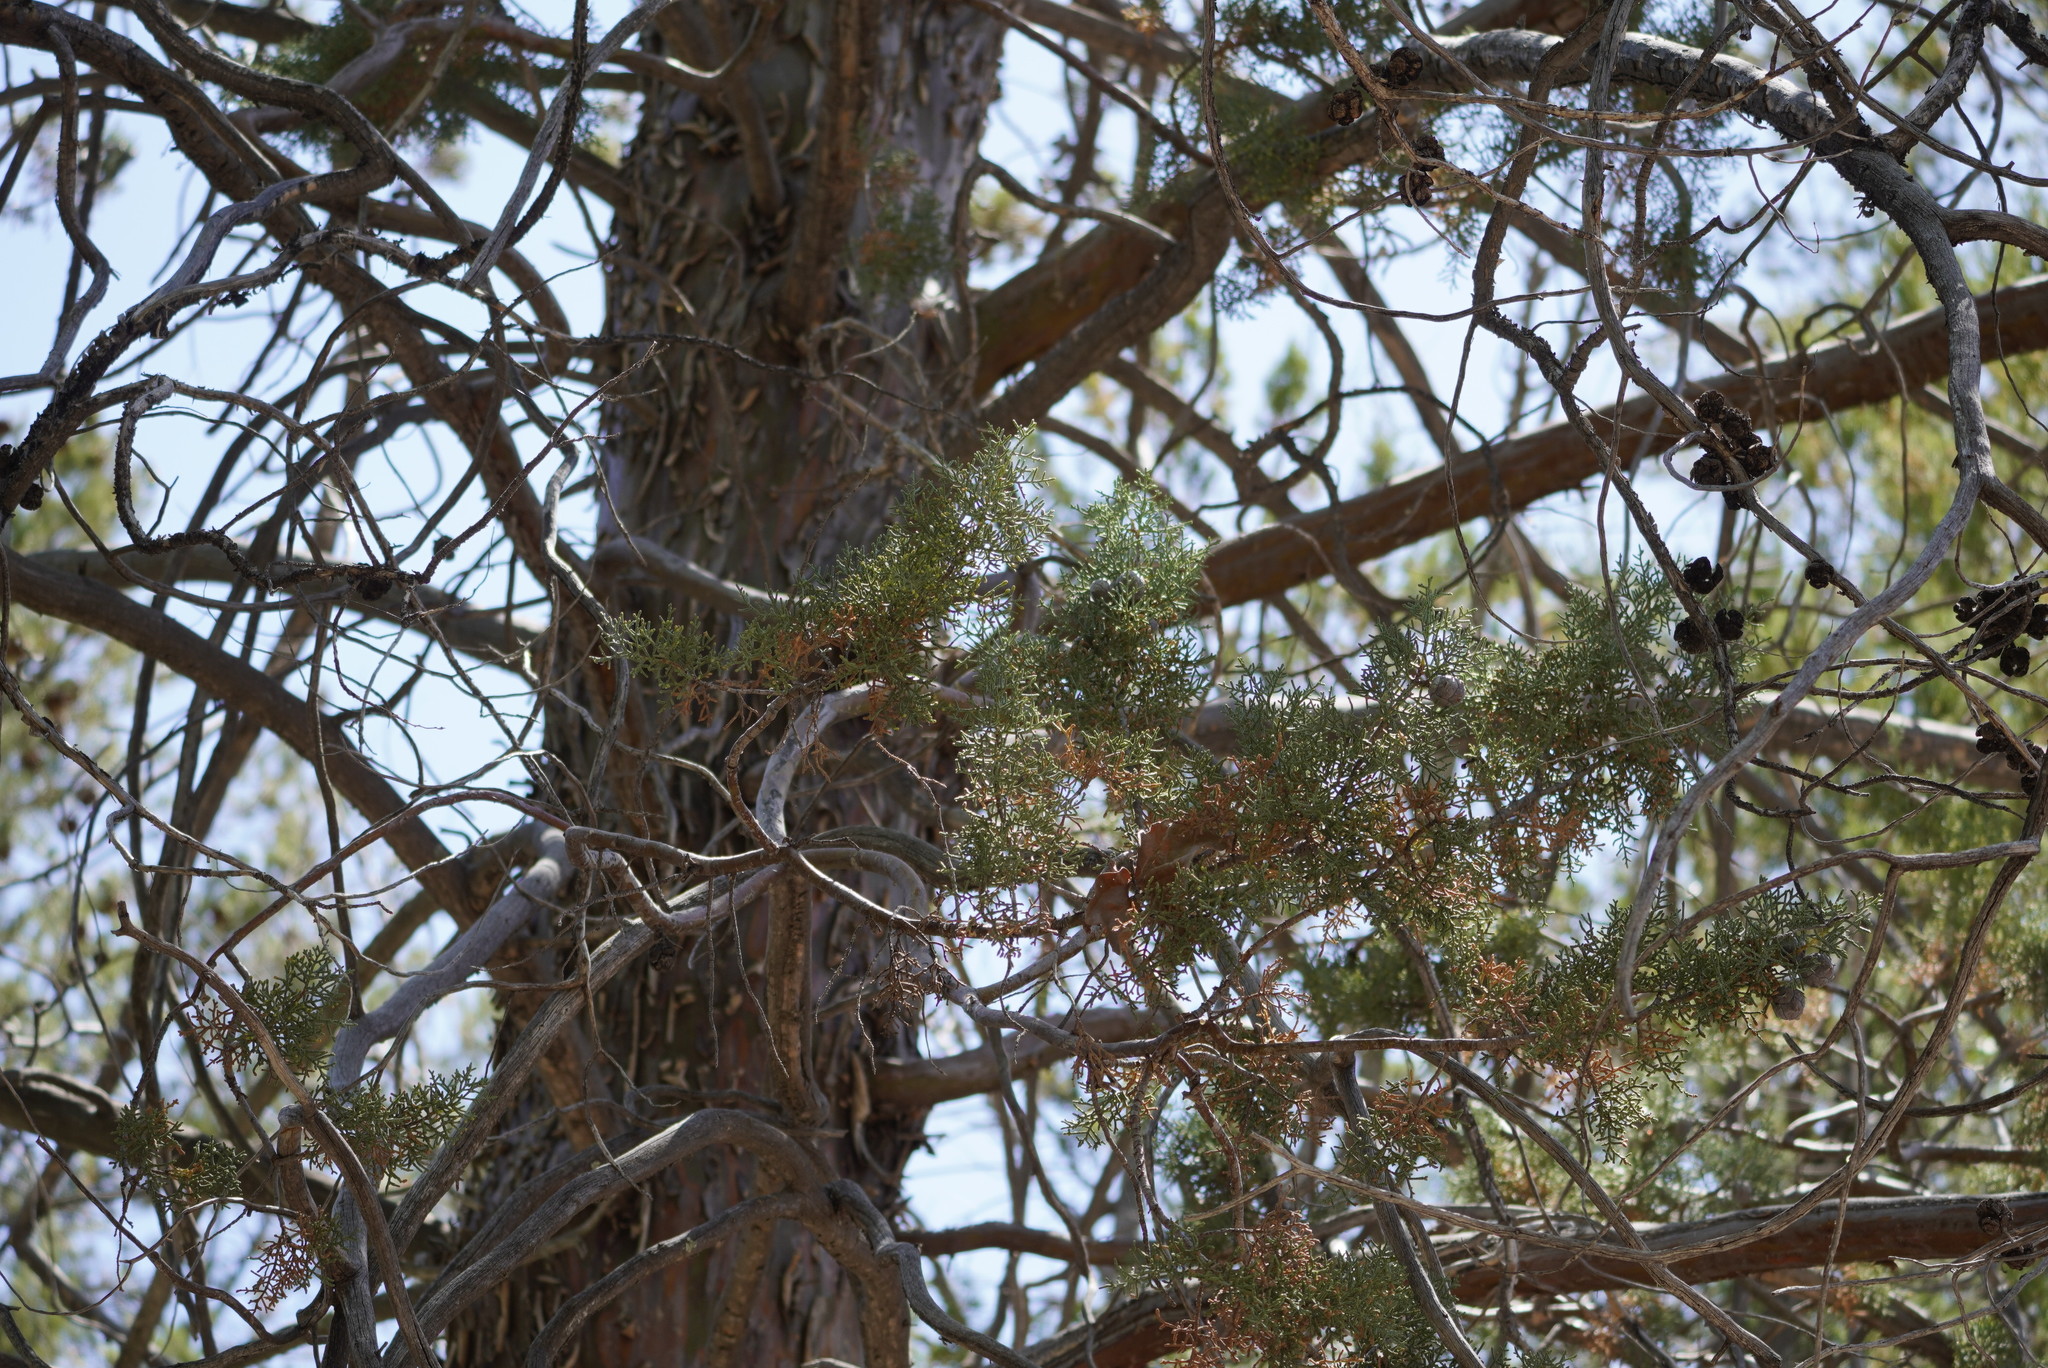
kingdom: Plantae
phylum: Tracheophyta
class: Pinopsida
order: Pinales
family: Cupressaceae
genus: Cupressus
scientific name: Cupressus arizonica
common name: Arizona cypress
